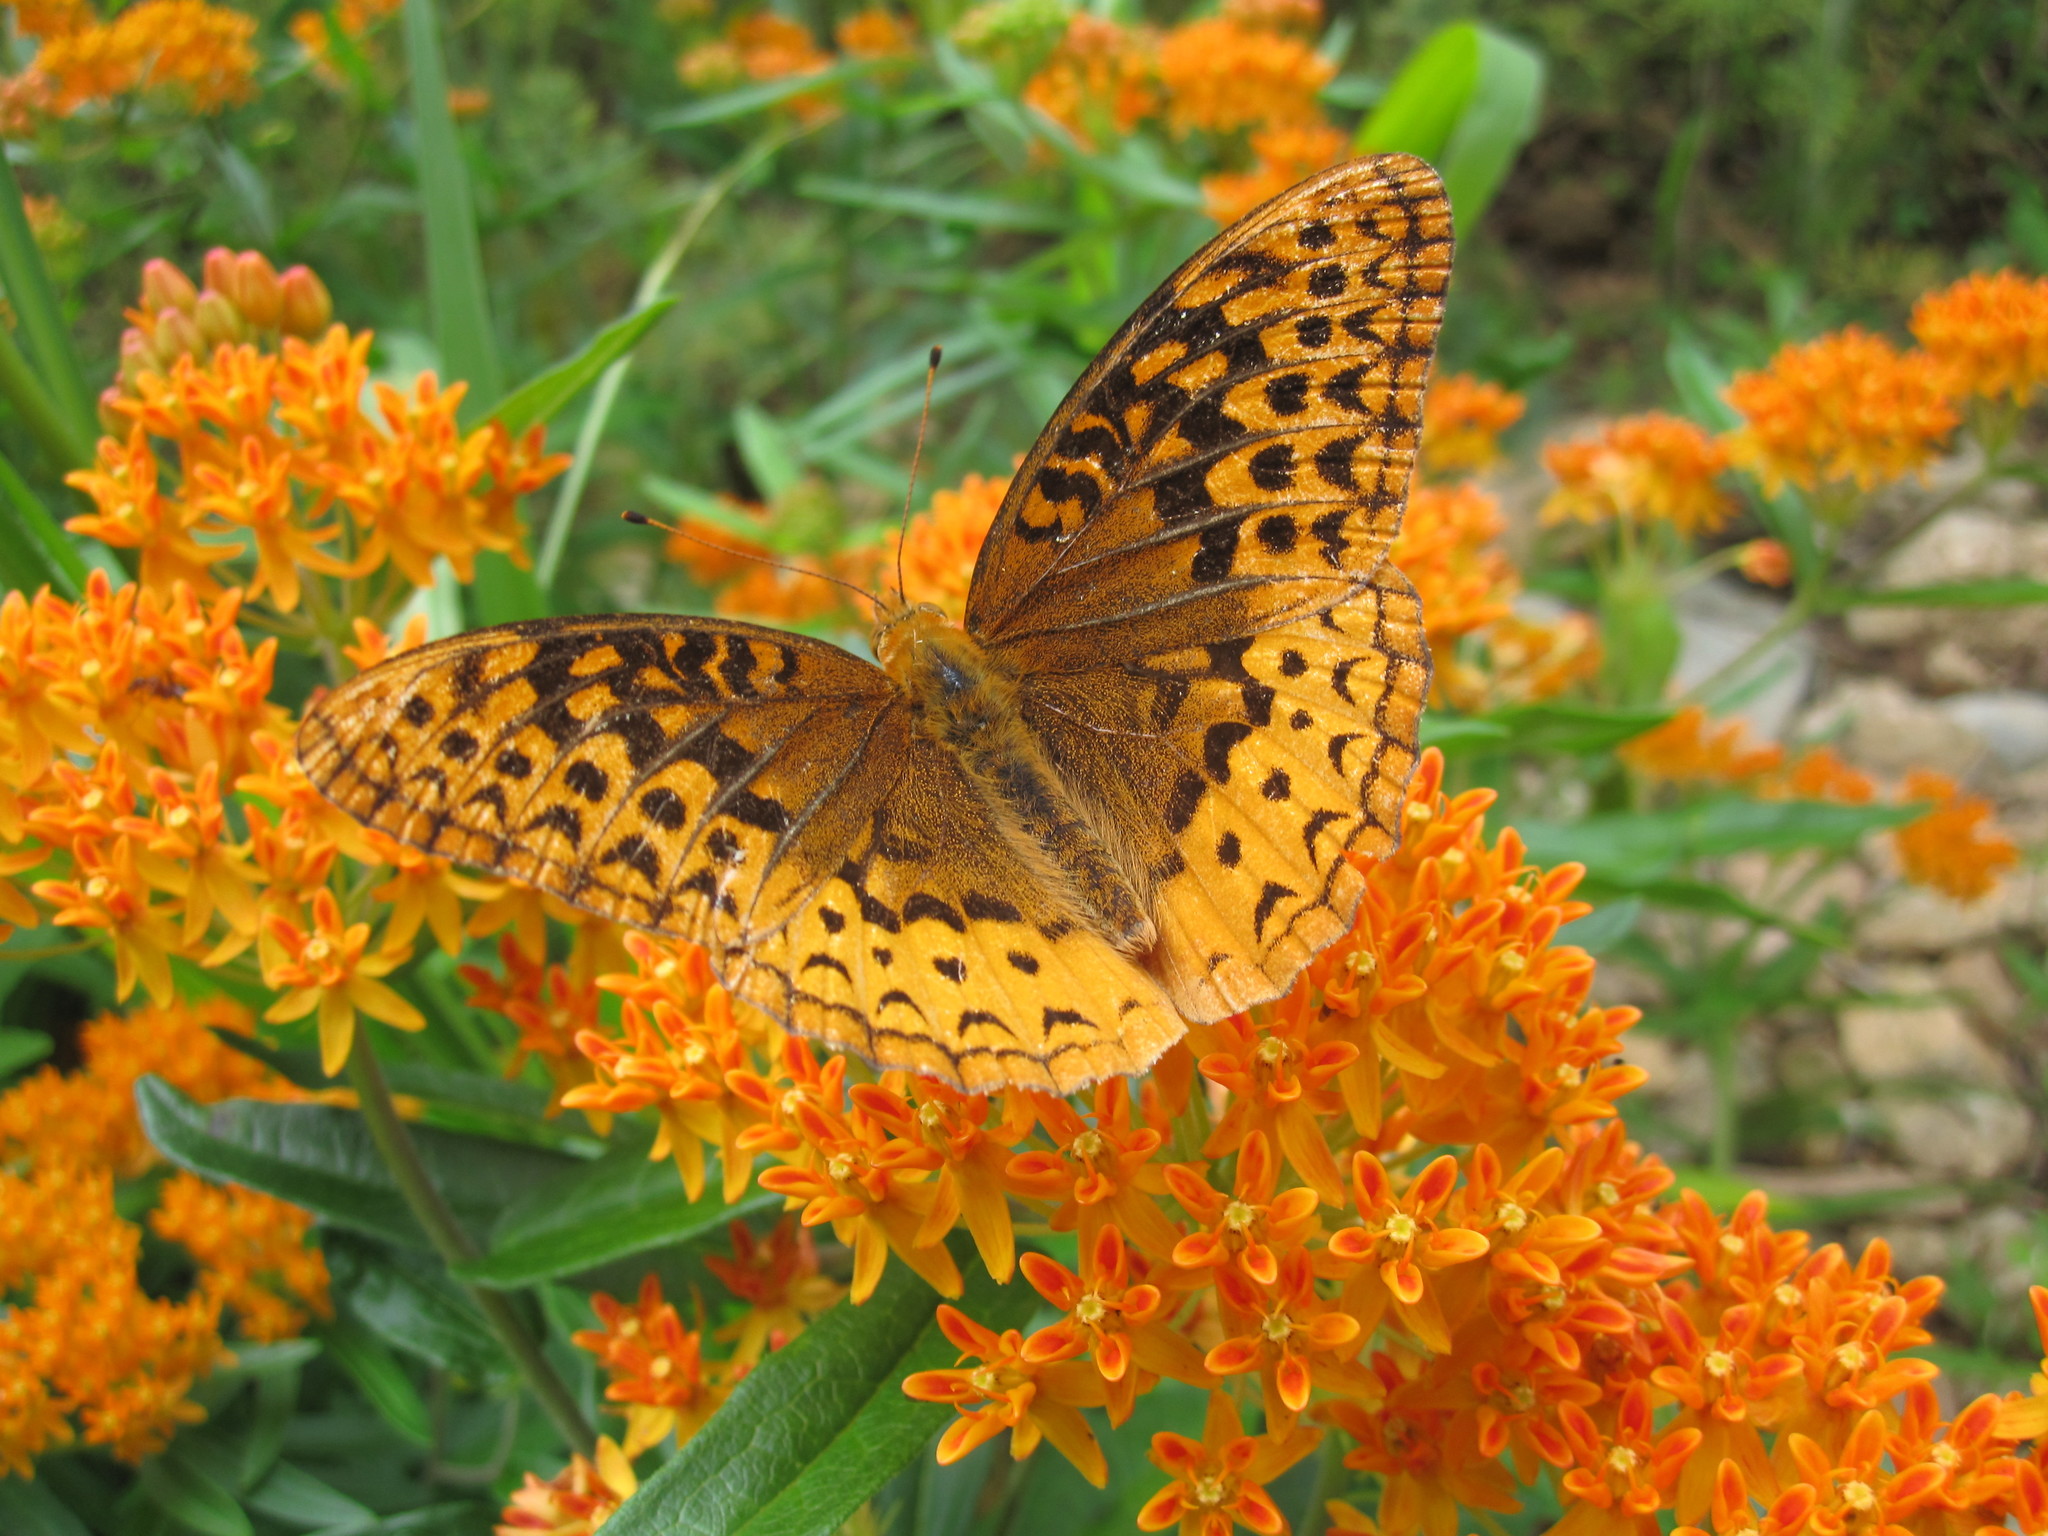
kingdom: Animalia
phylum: Arthropoda
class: Insecta
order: Lepidoptera
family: Nymphalidae
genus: Speyeria
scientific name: Speyeria cybele
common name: Great spangled fritillary
